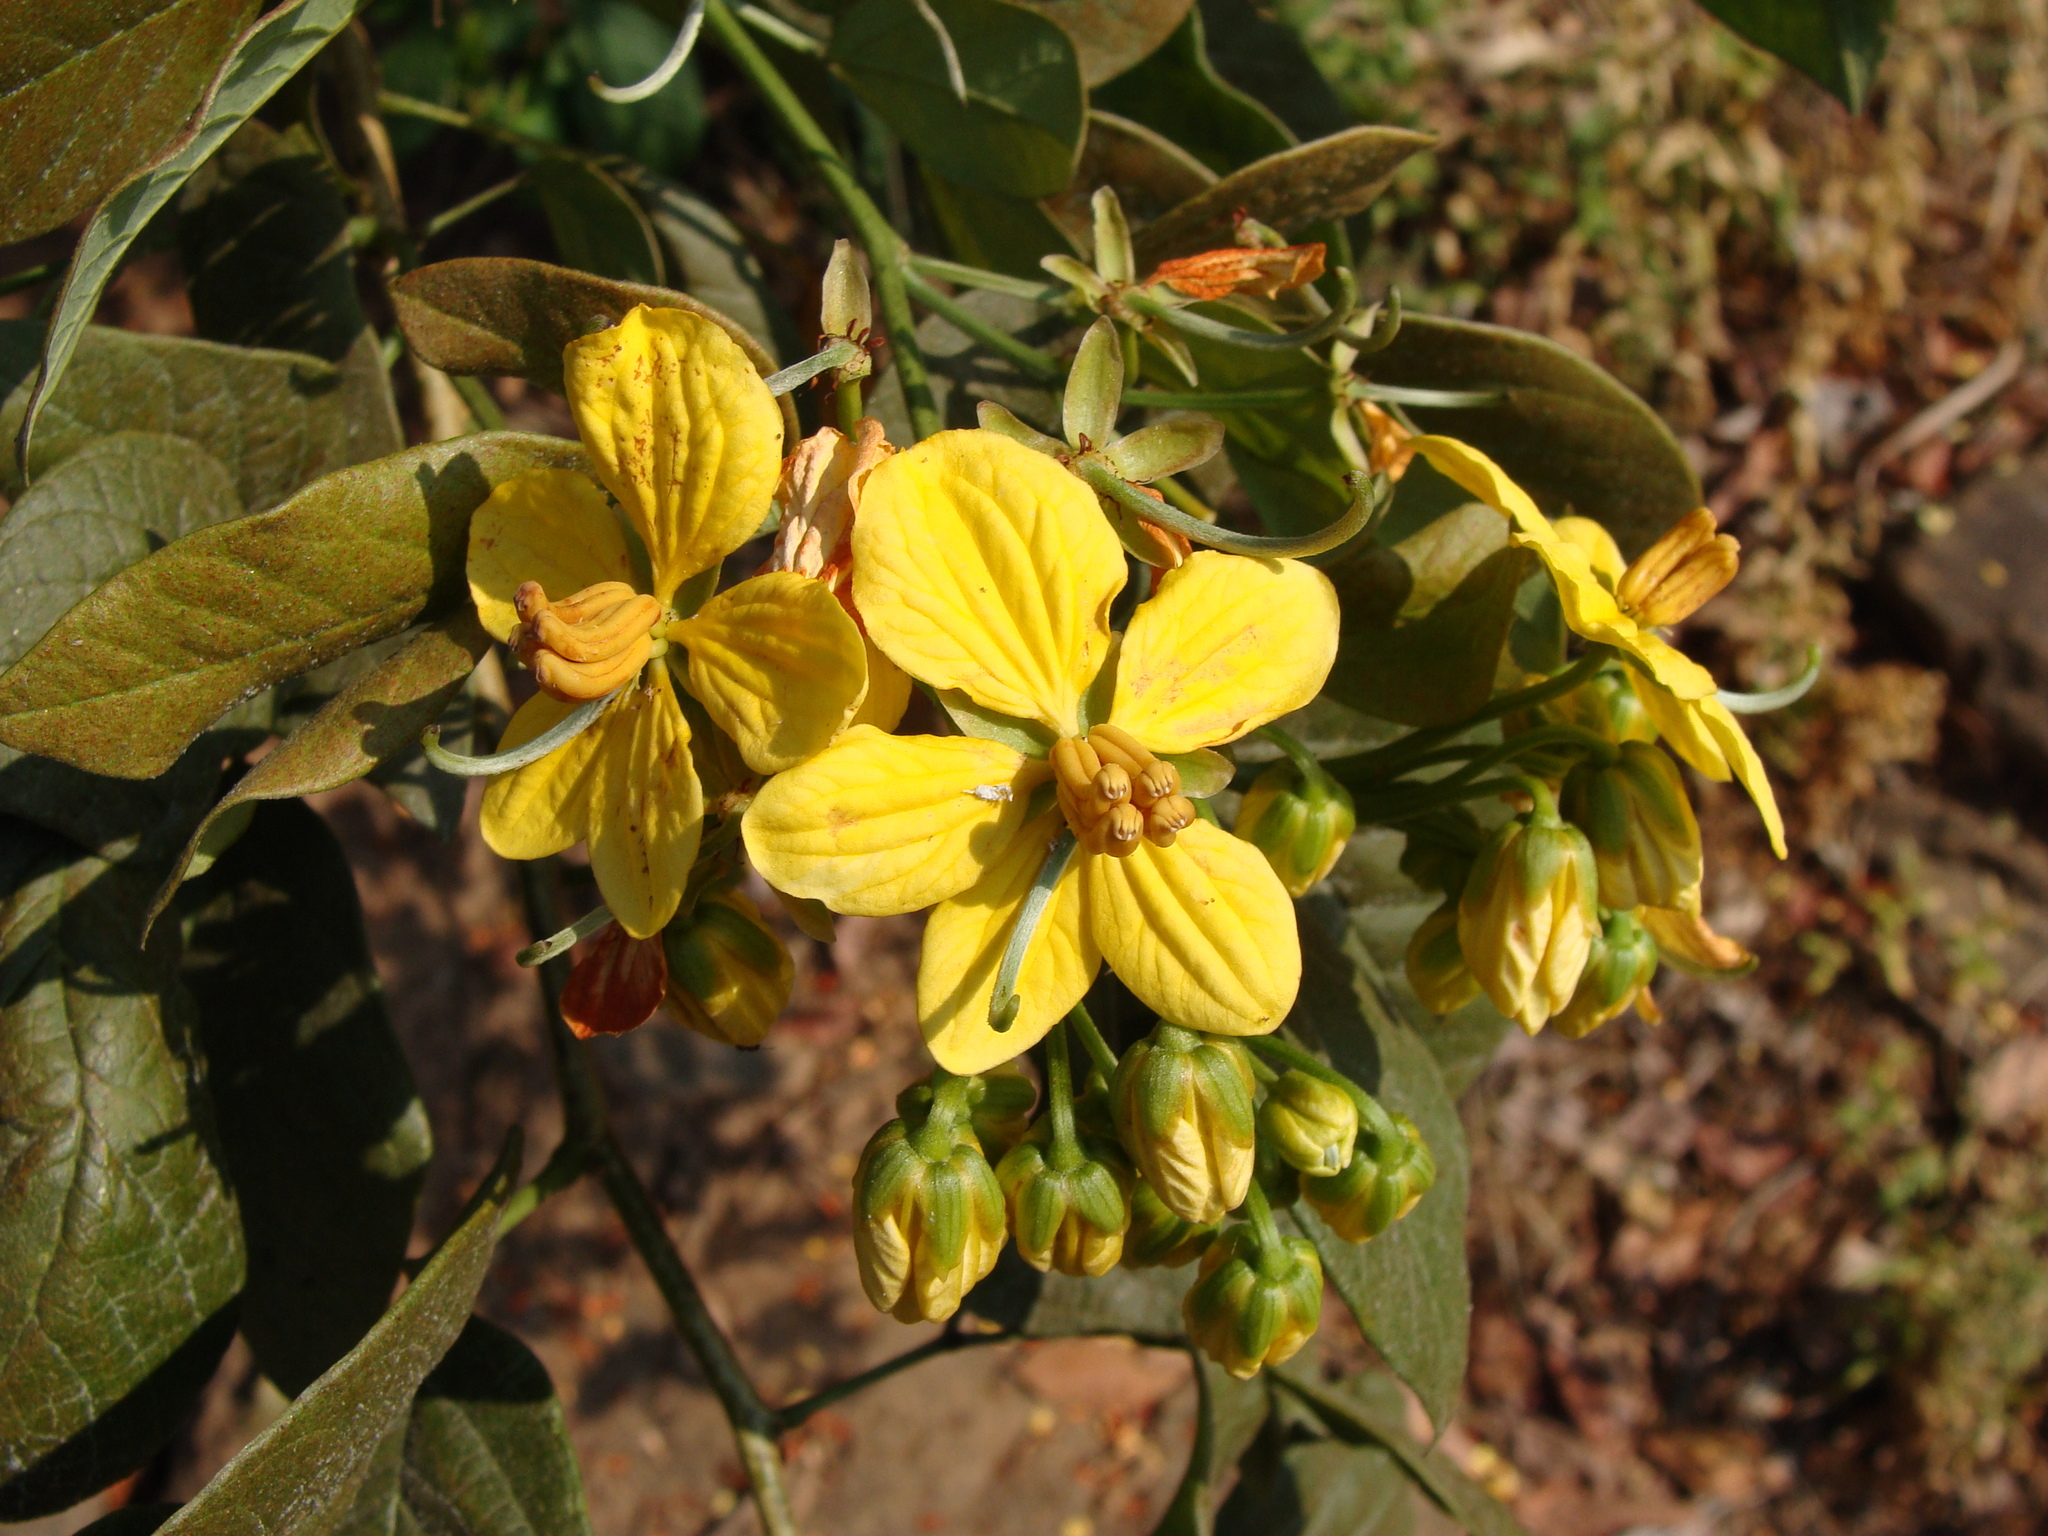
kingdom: Plantae
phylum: Tracheophyta
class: Magnoliopsida
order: Fabales
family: Fabaceae
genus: Senna
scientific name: Senna hayesiana
